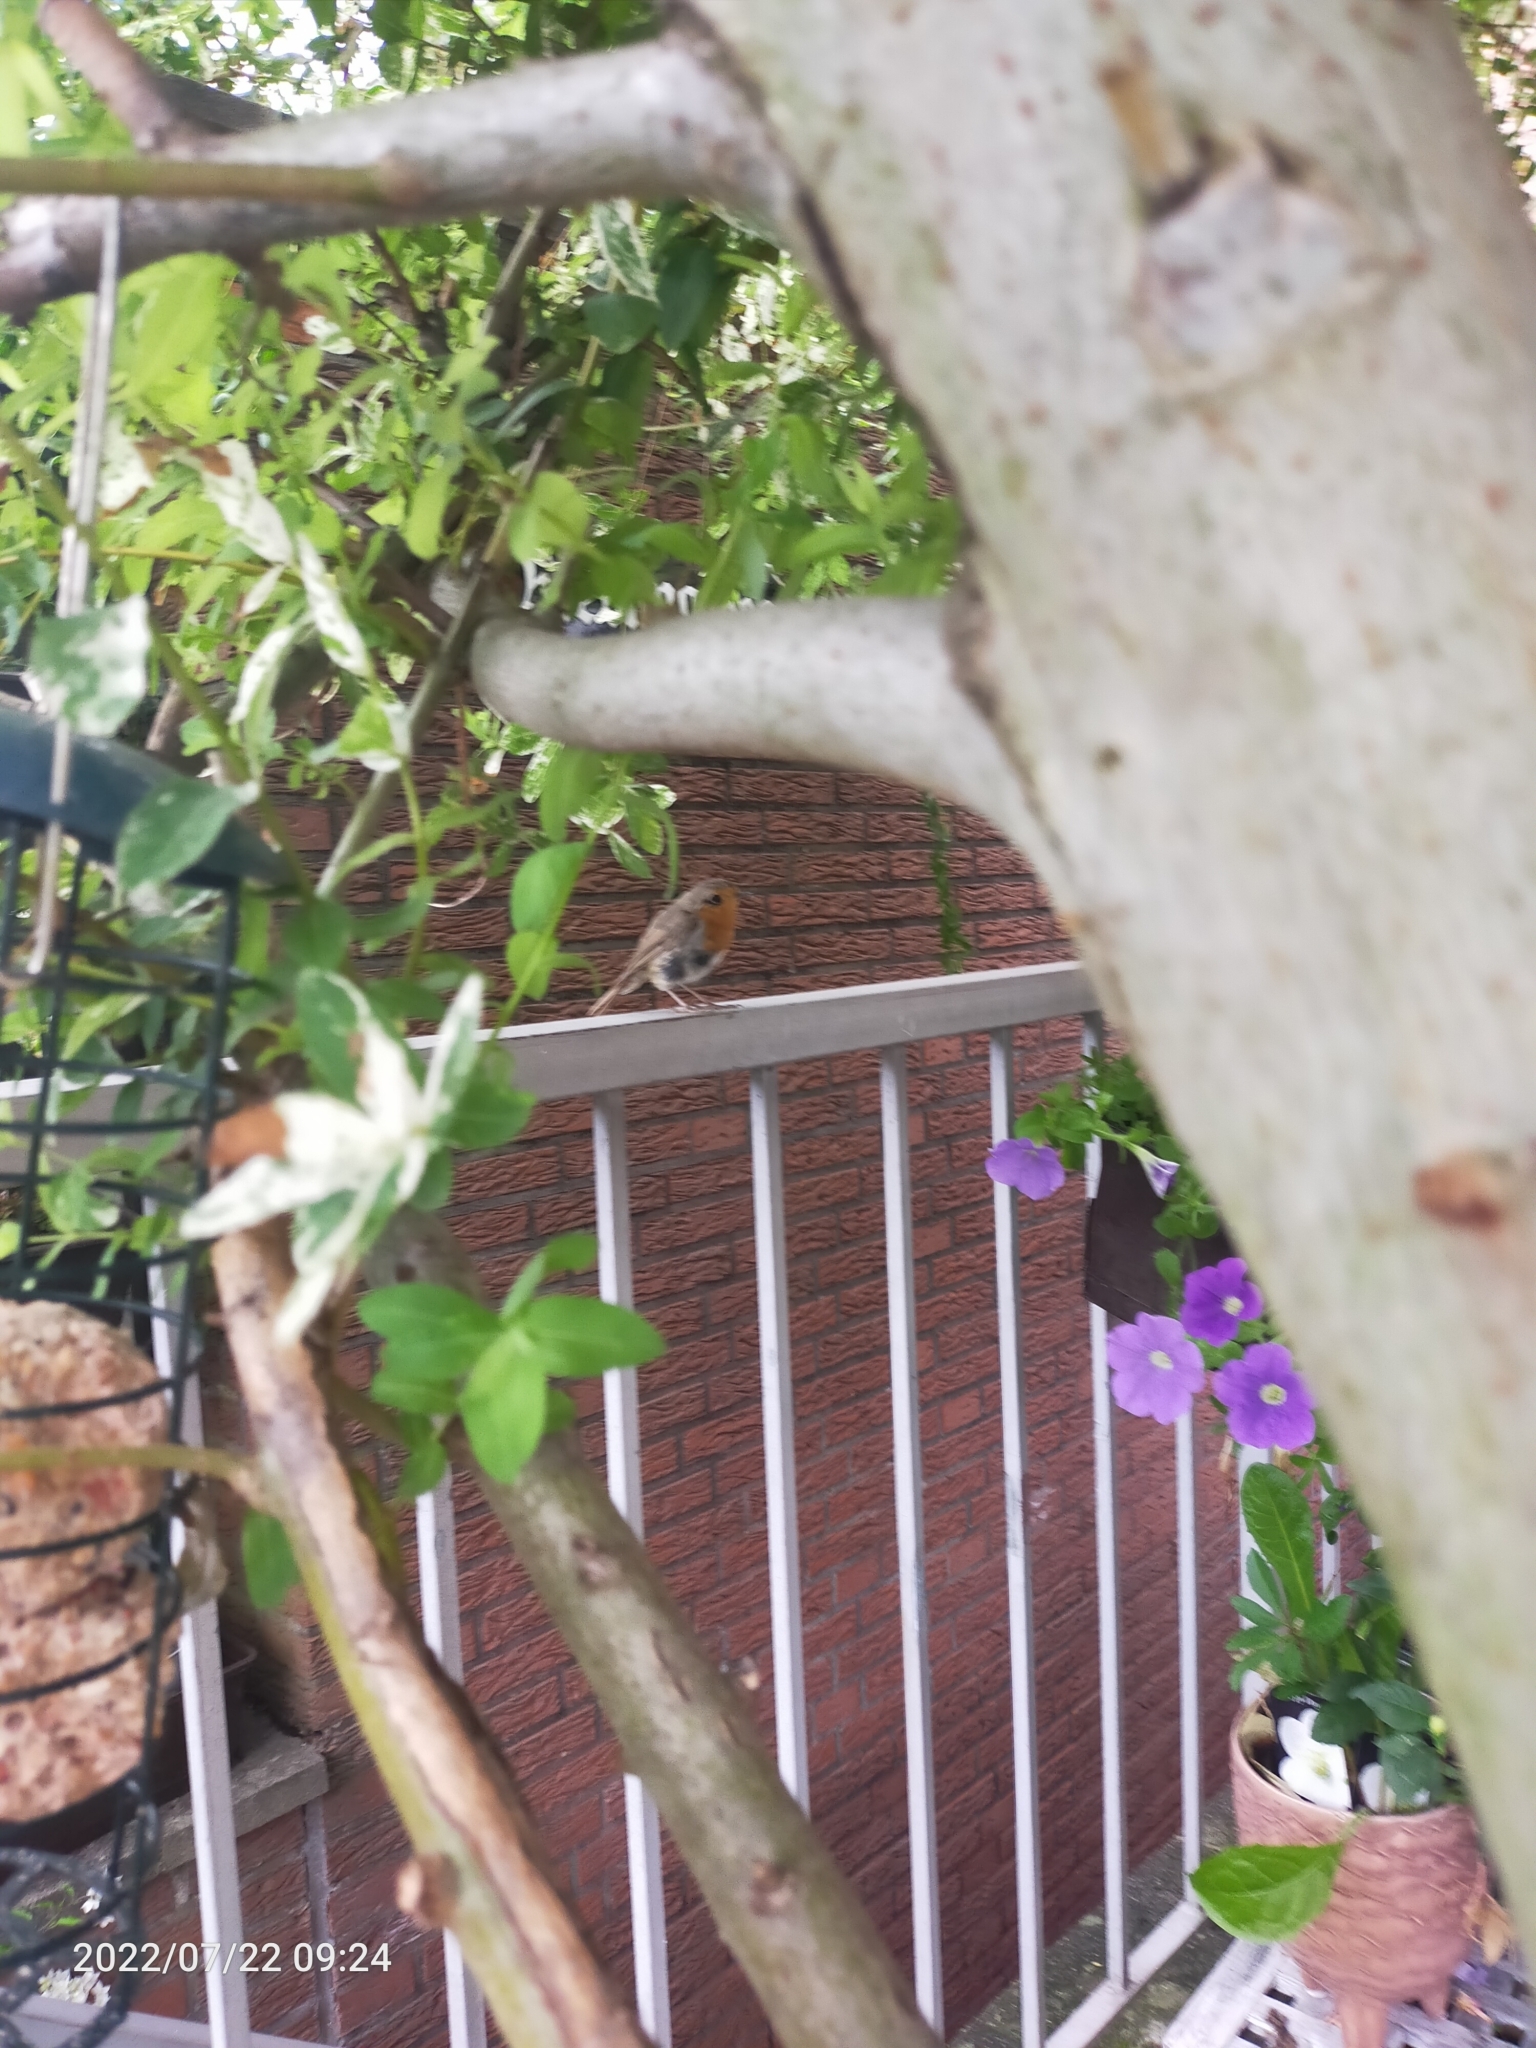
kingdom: Animalia
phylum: Chordata
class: Aves
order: Passeriformes
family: Muscicapidae
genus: Erithacus
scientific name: Erithacus rubecula
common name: European robin
